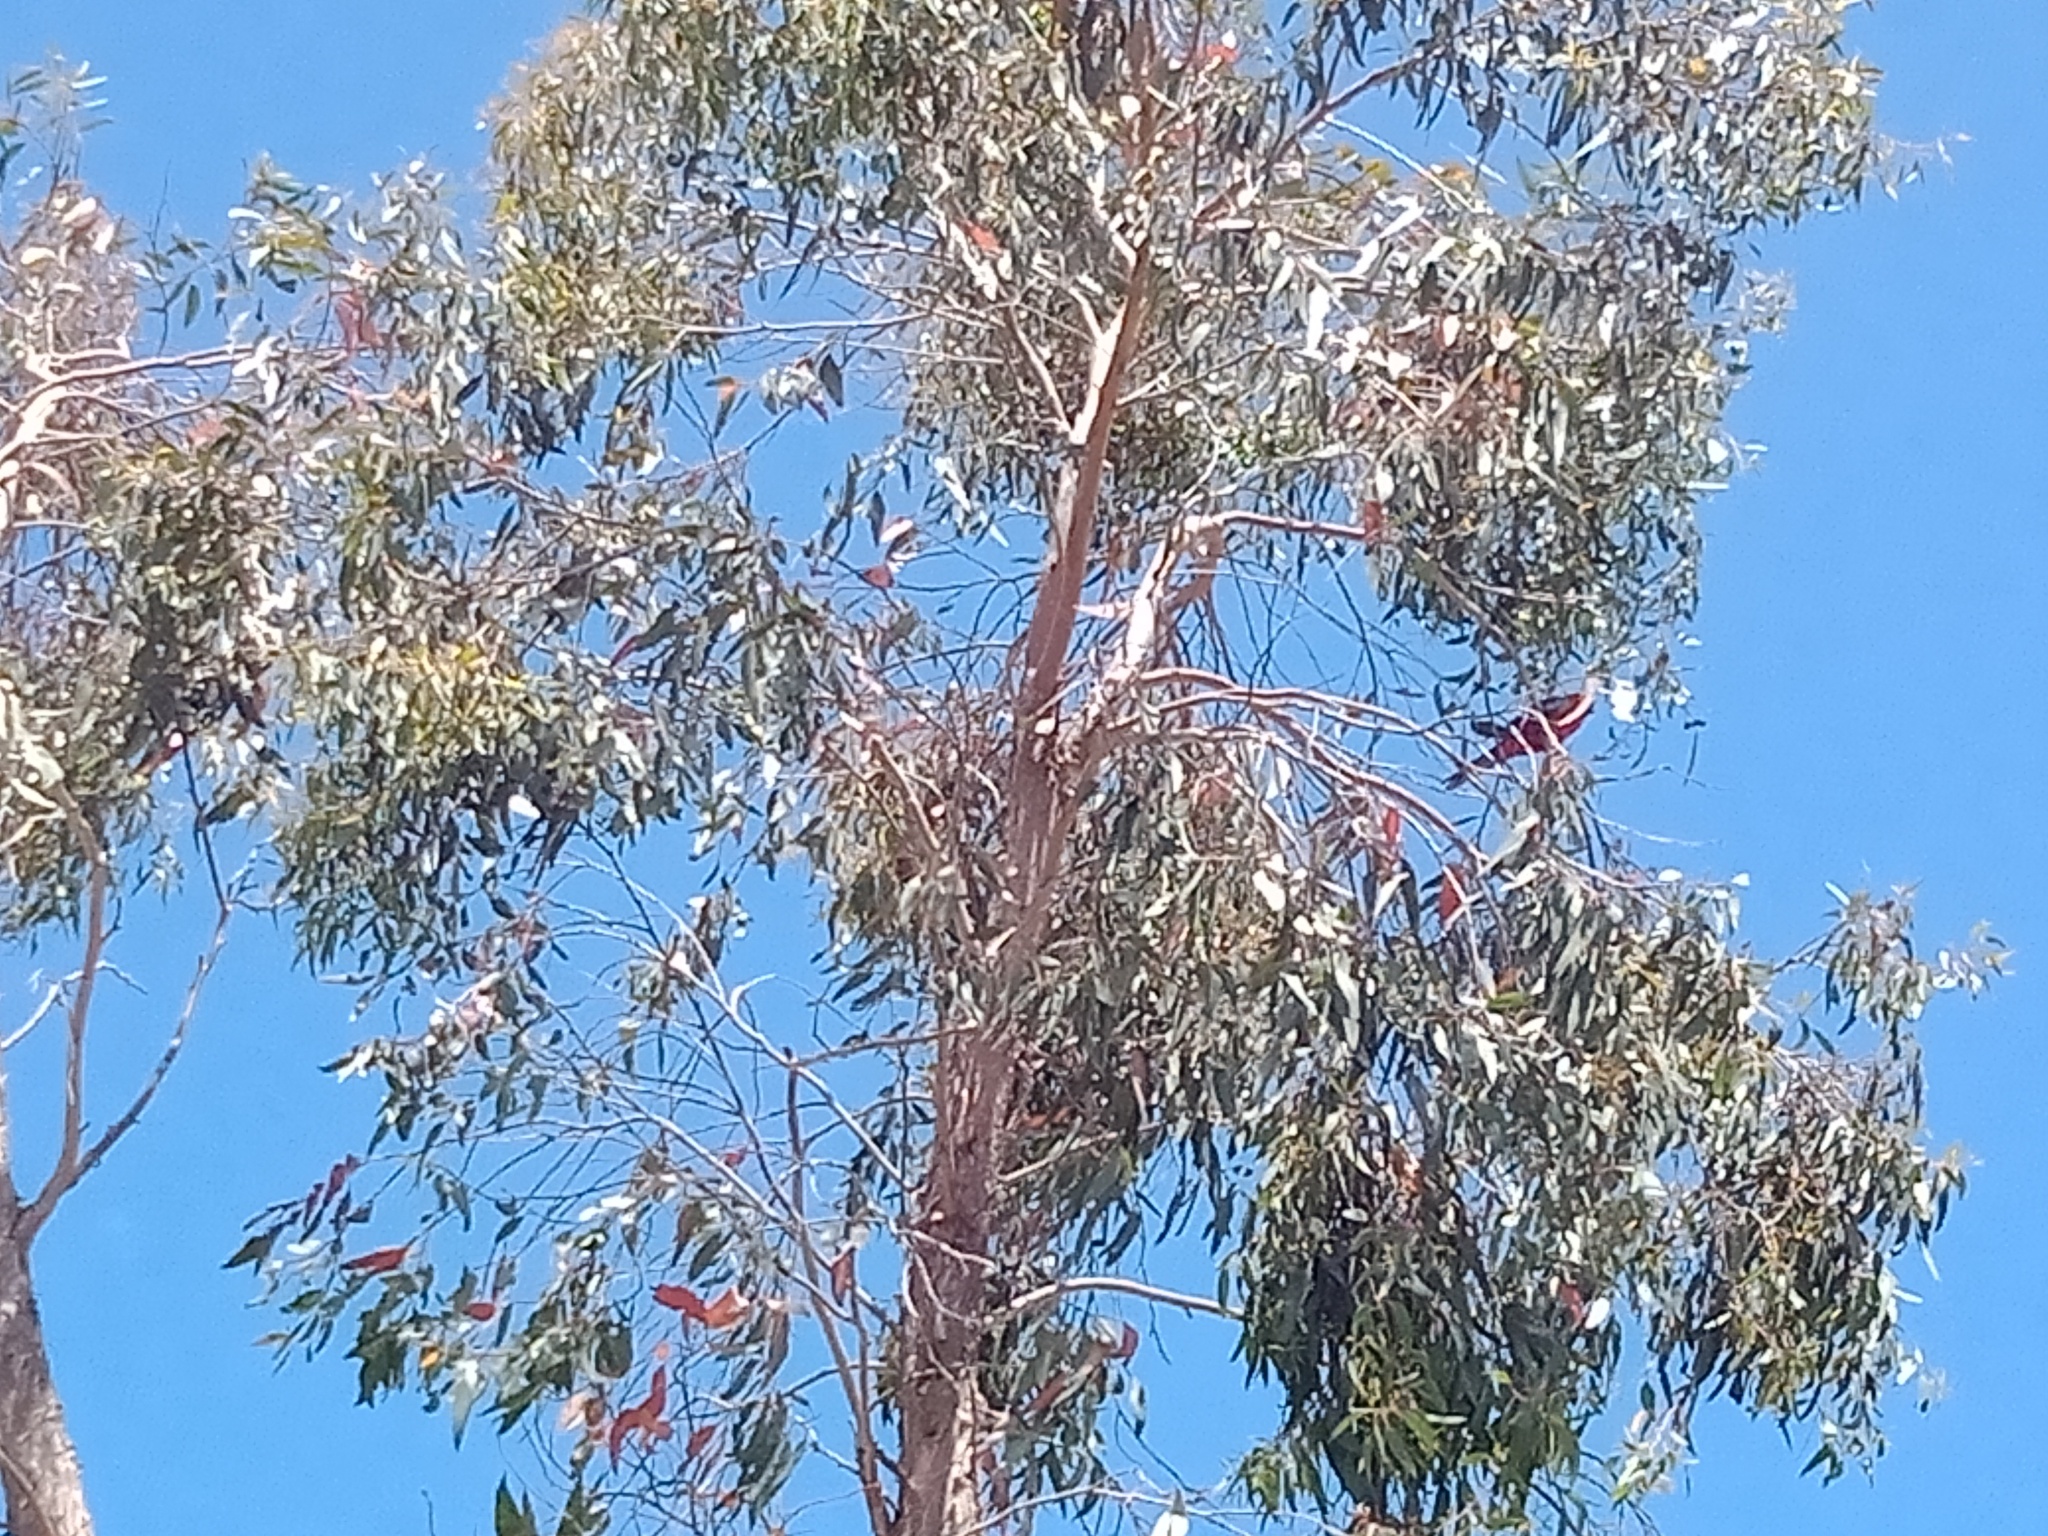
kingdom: Animalia
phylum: Chordata
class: Aves
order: Psittaciformes
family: Psittacidae
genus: Platycercus
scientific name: Platycercus elegans
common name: Crimson rosella
